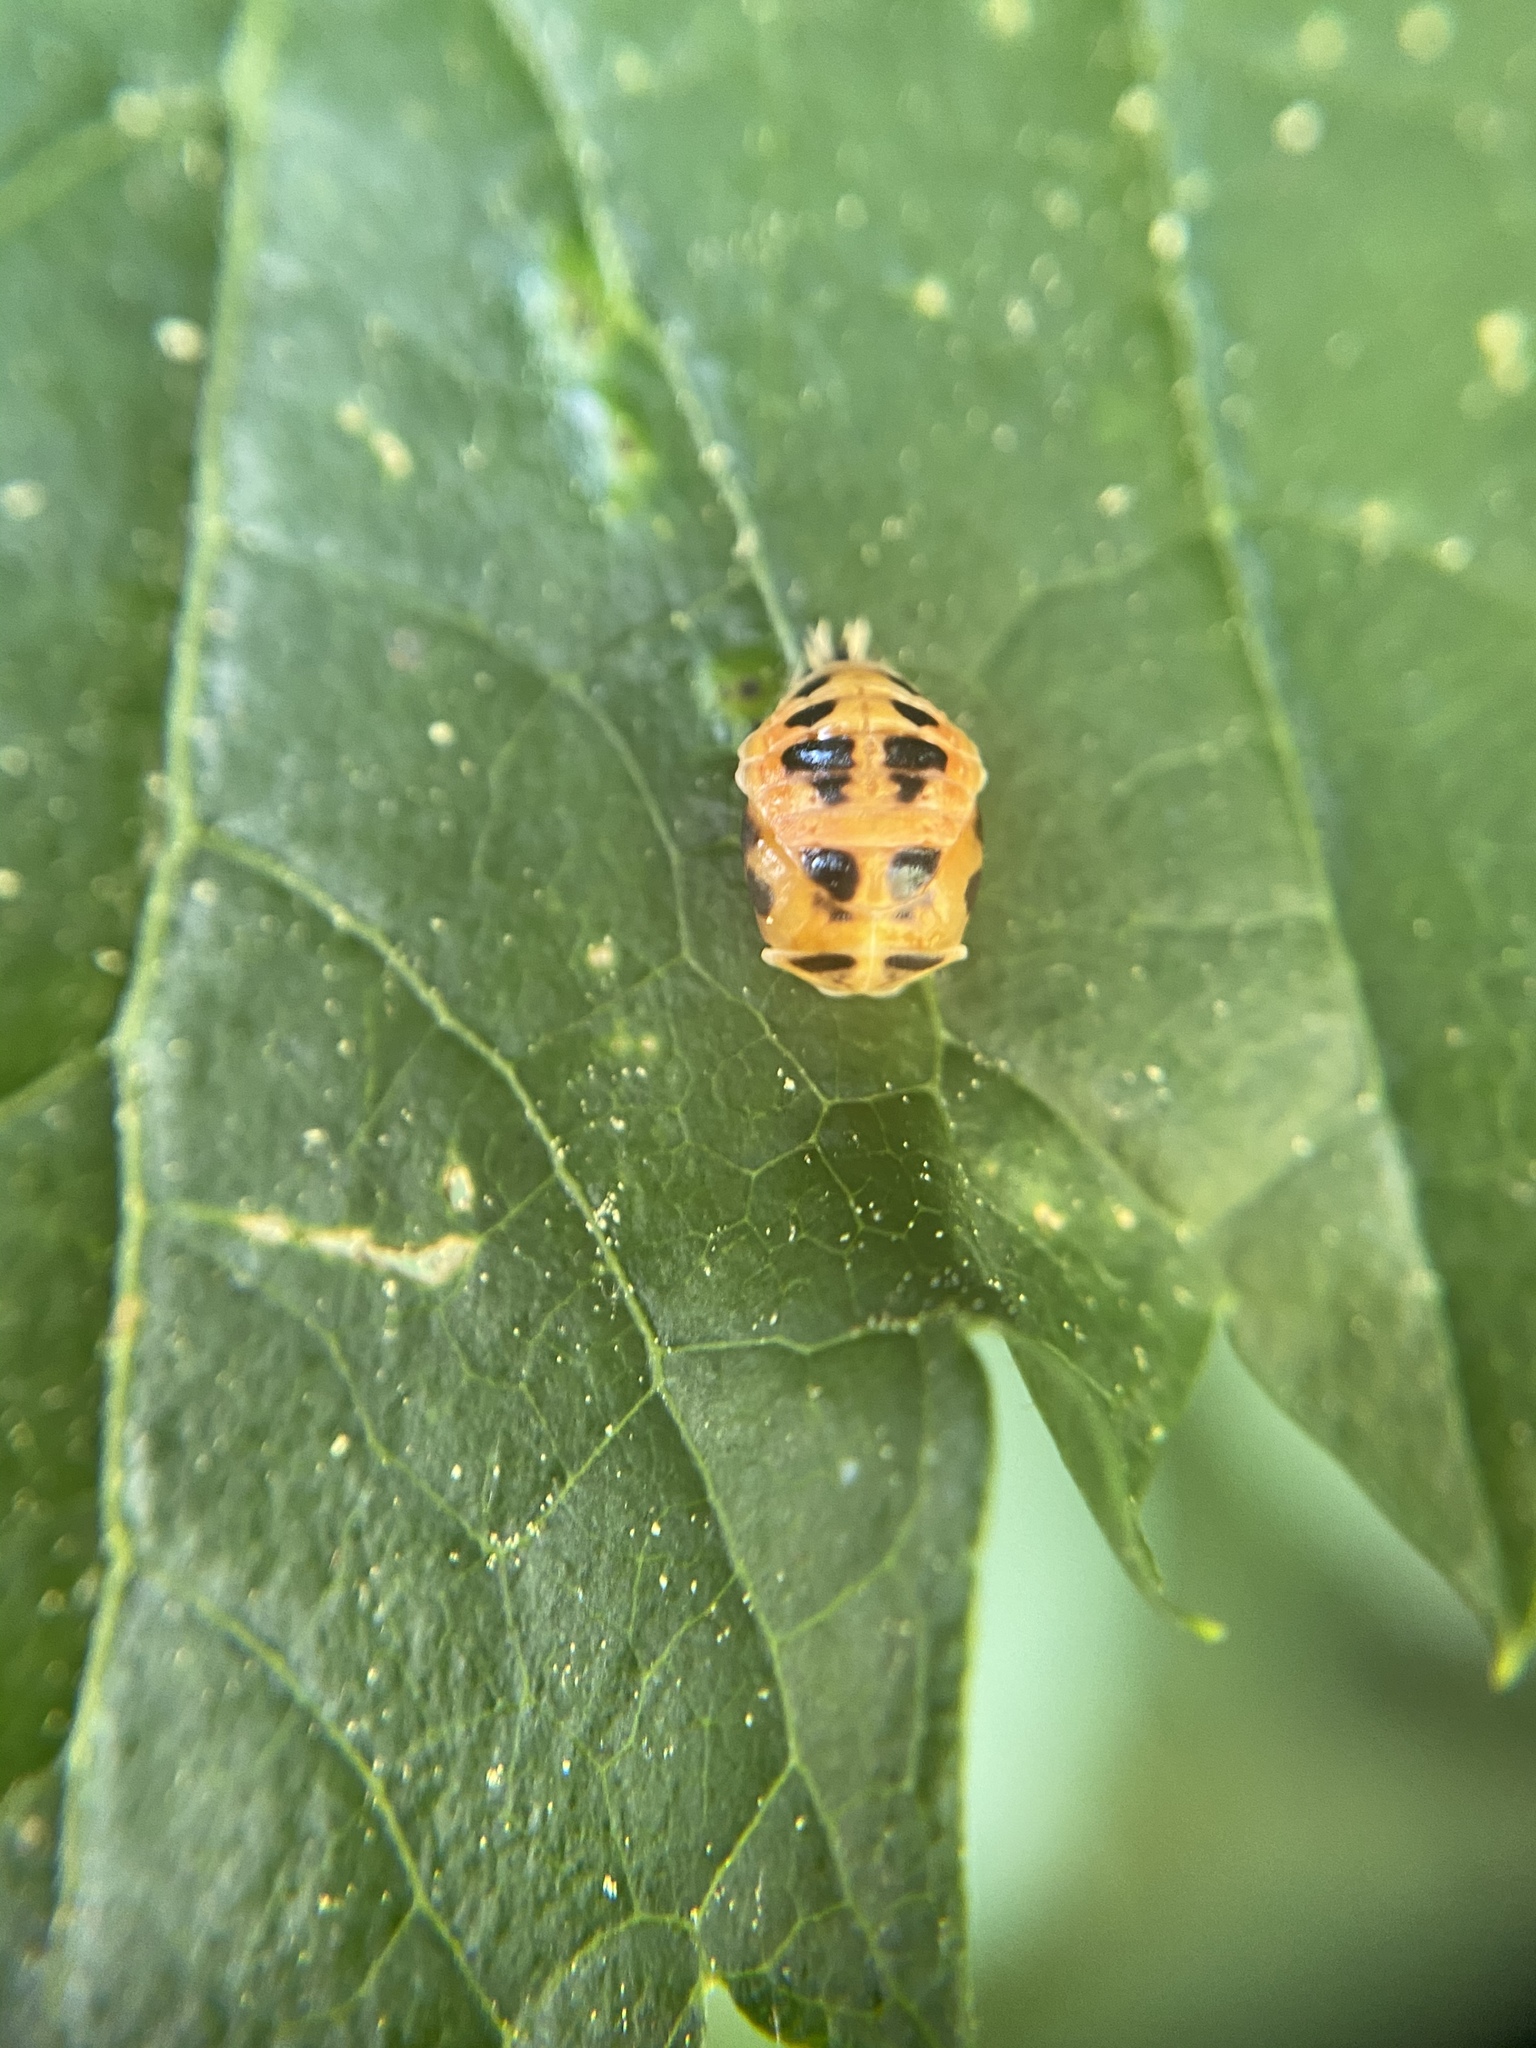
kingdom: Animalia
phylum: Arthropoda
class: Insecta
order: Coleoptera
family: Coccinellidae
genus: Harmonia
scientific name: Harmonia axyridis
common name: Harlequin ladybird
